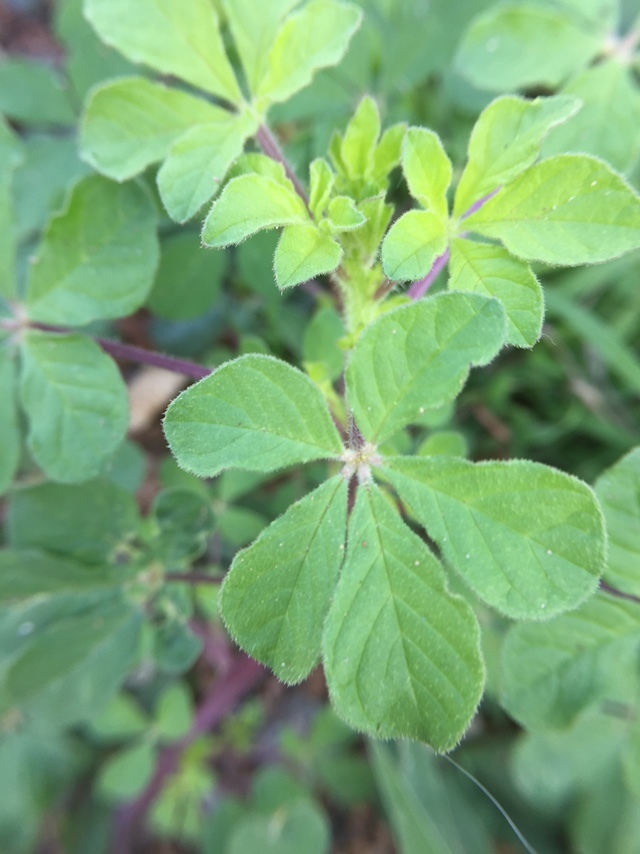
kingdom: Plantae
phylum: Tracheophyta
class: Magnoliopsida
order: Brassicales
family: Cleomaceae
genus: Arivela
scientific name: Arivela viscosa
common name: Asian spiderflower
